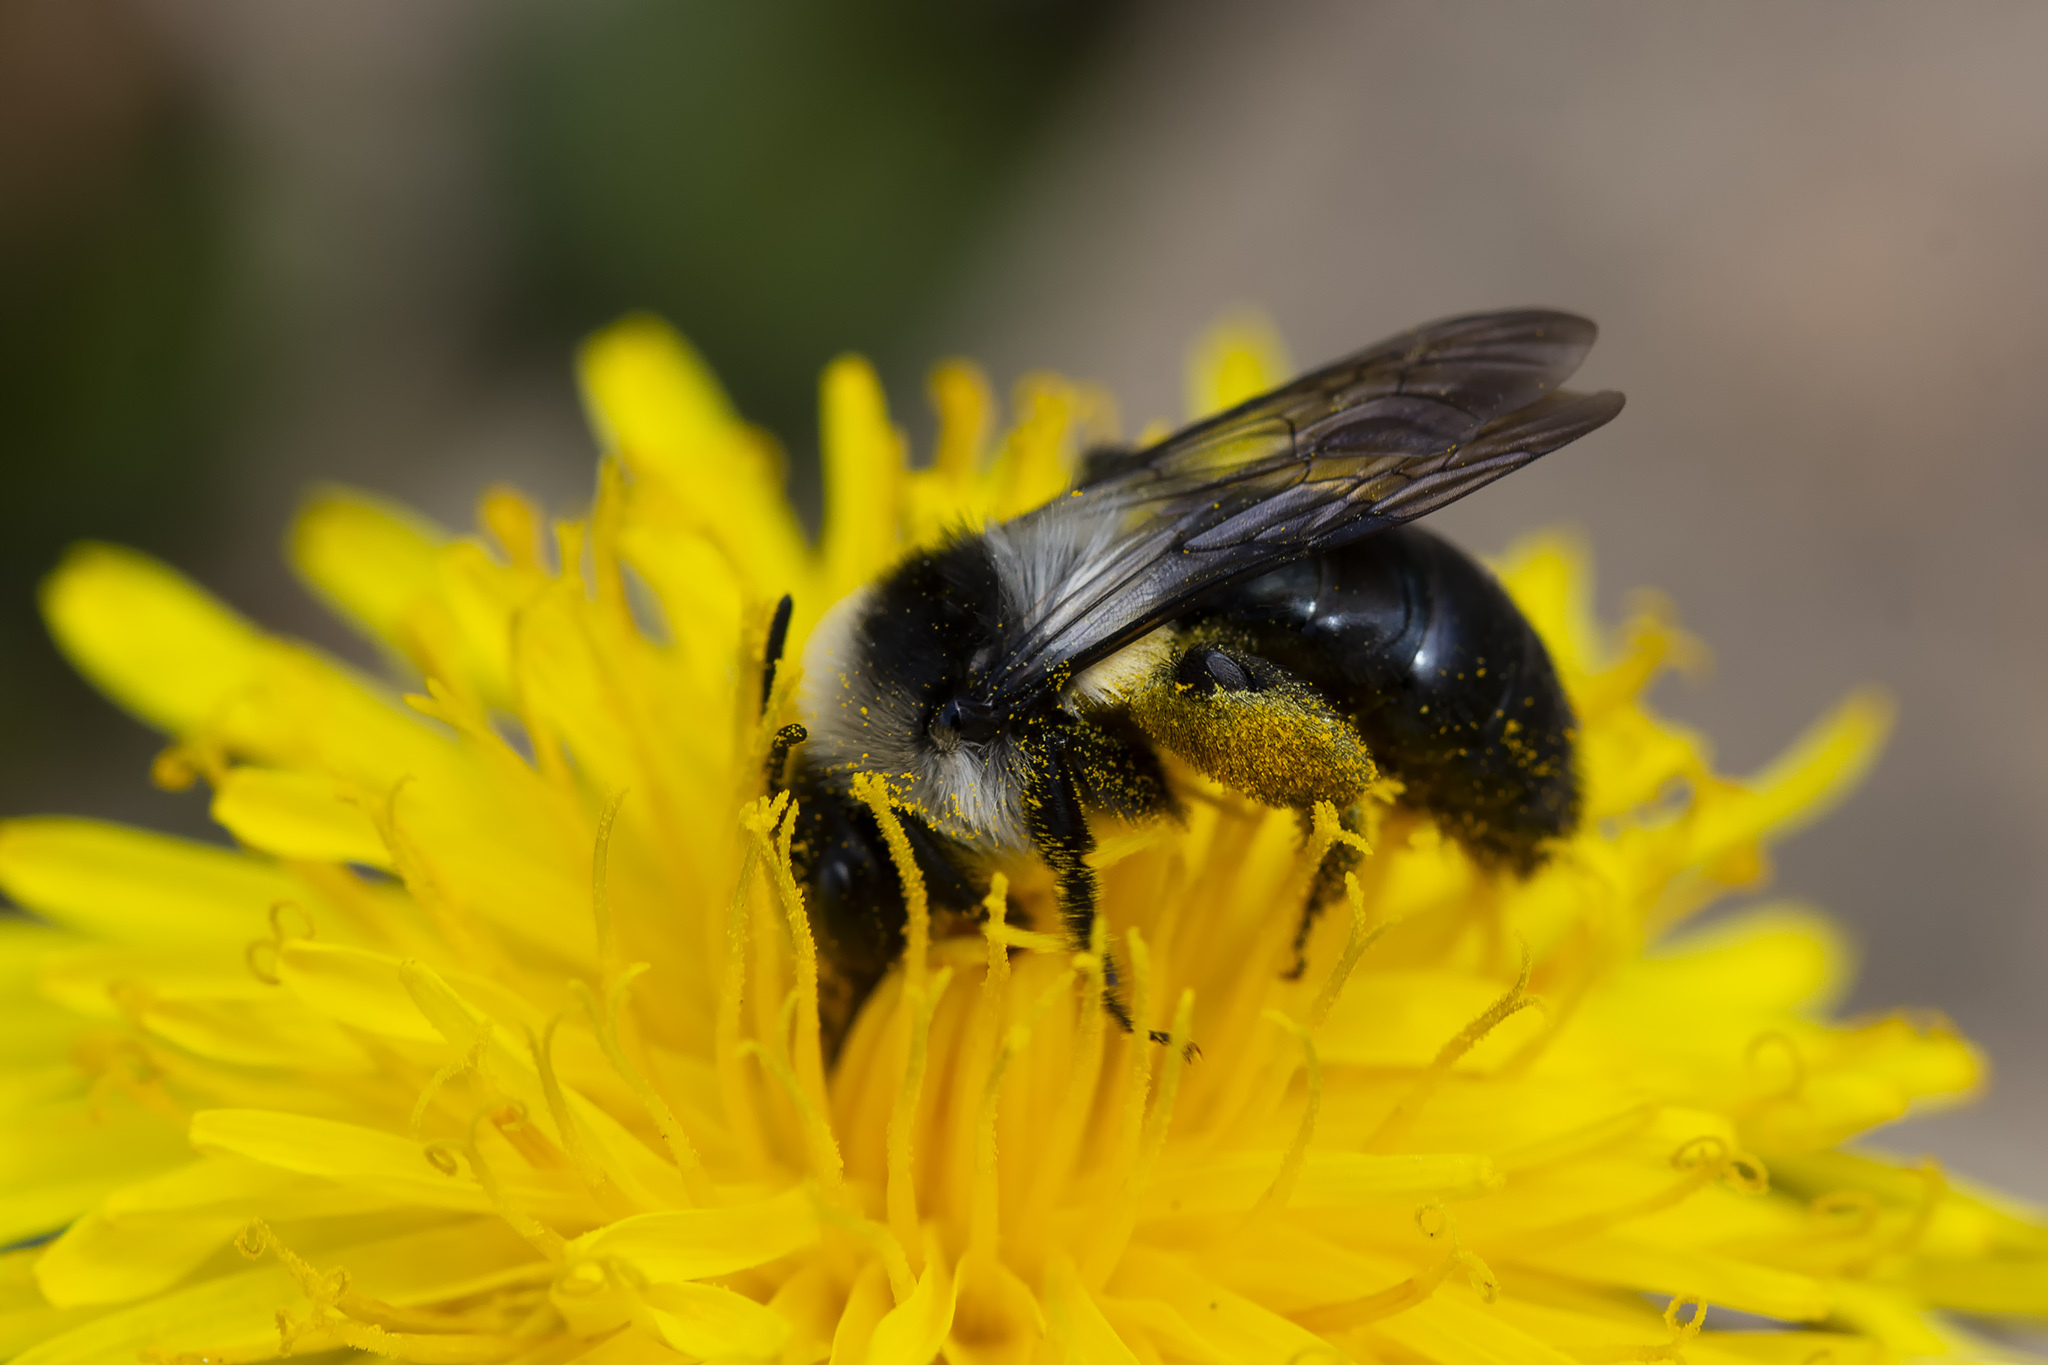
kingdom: Animalia
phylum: Arthropoda
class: Insecta
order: Hymenoptera
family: Andrenidae
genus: Andrena
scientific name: Andrena cineraria
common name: Ashy mining bee
